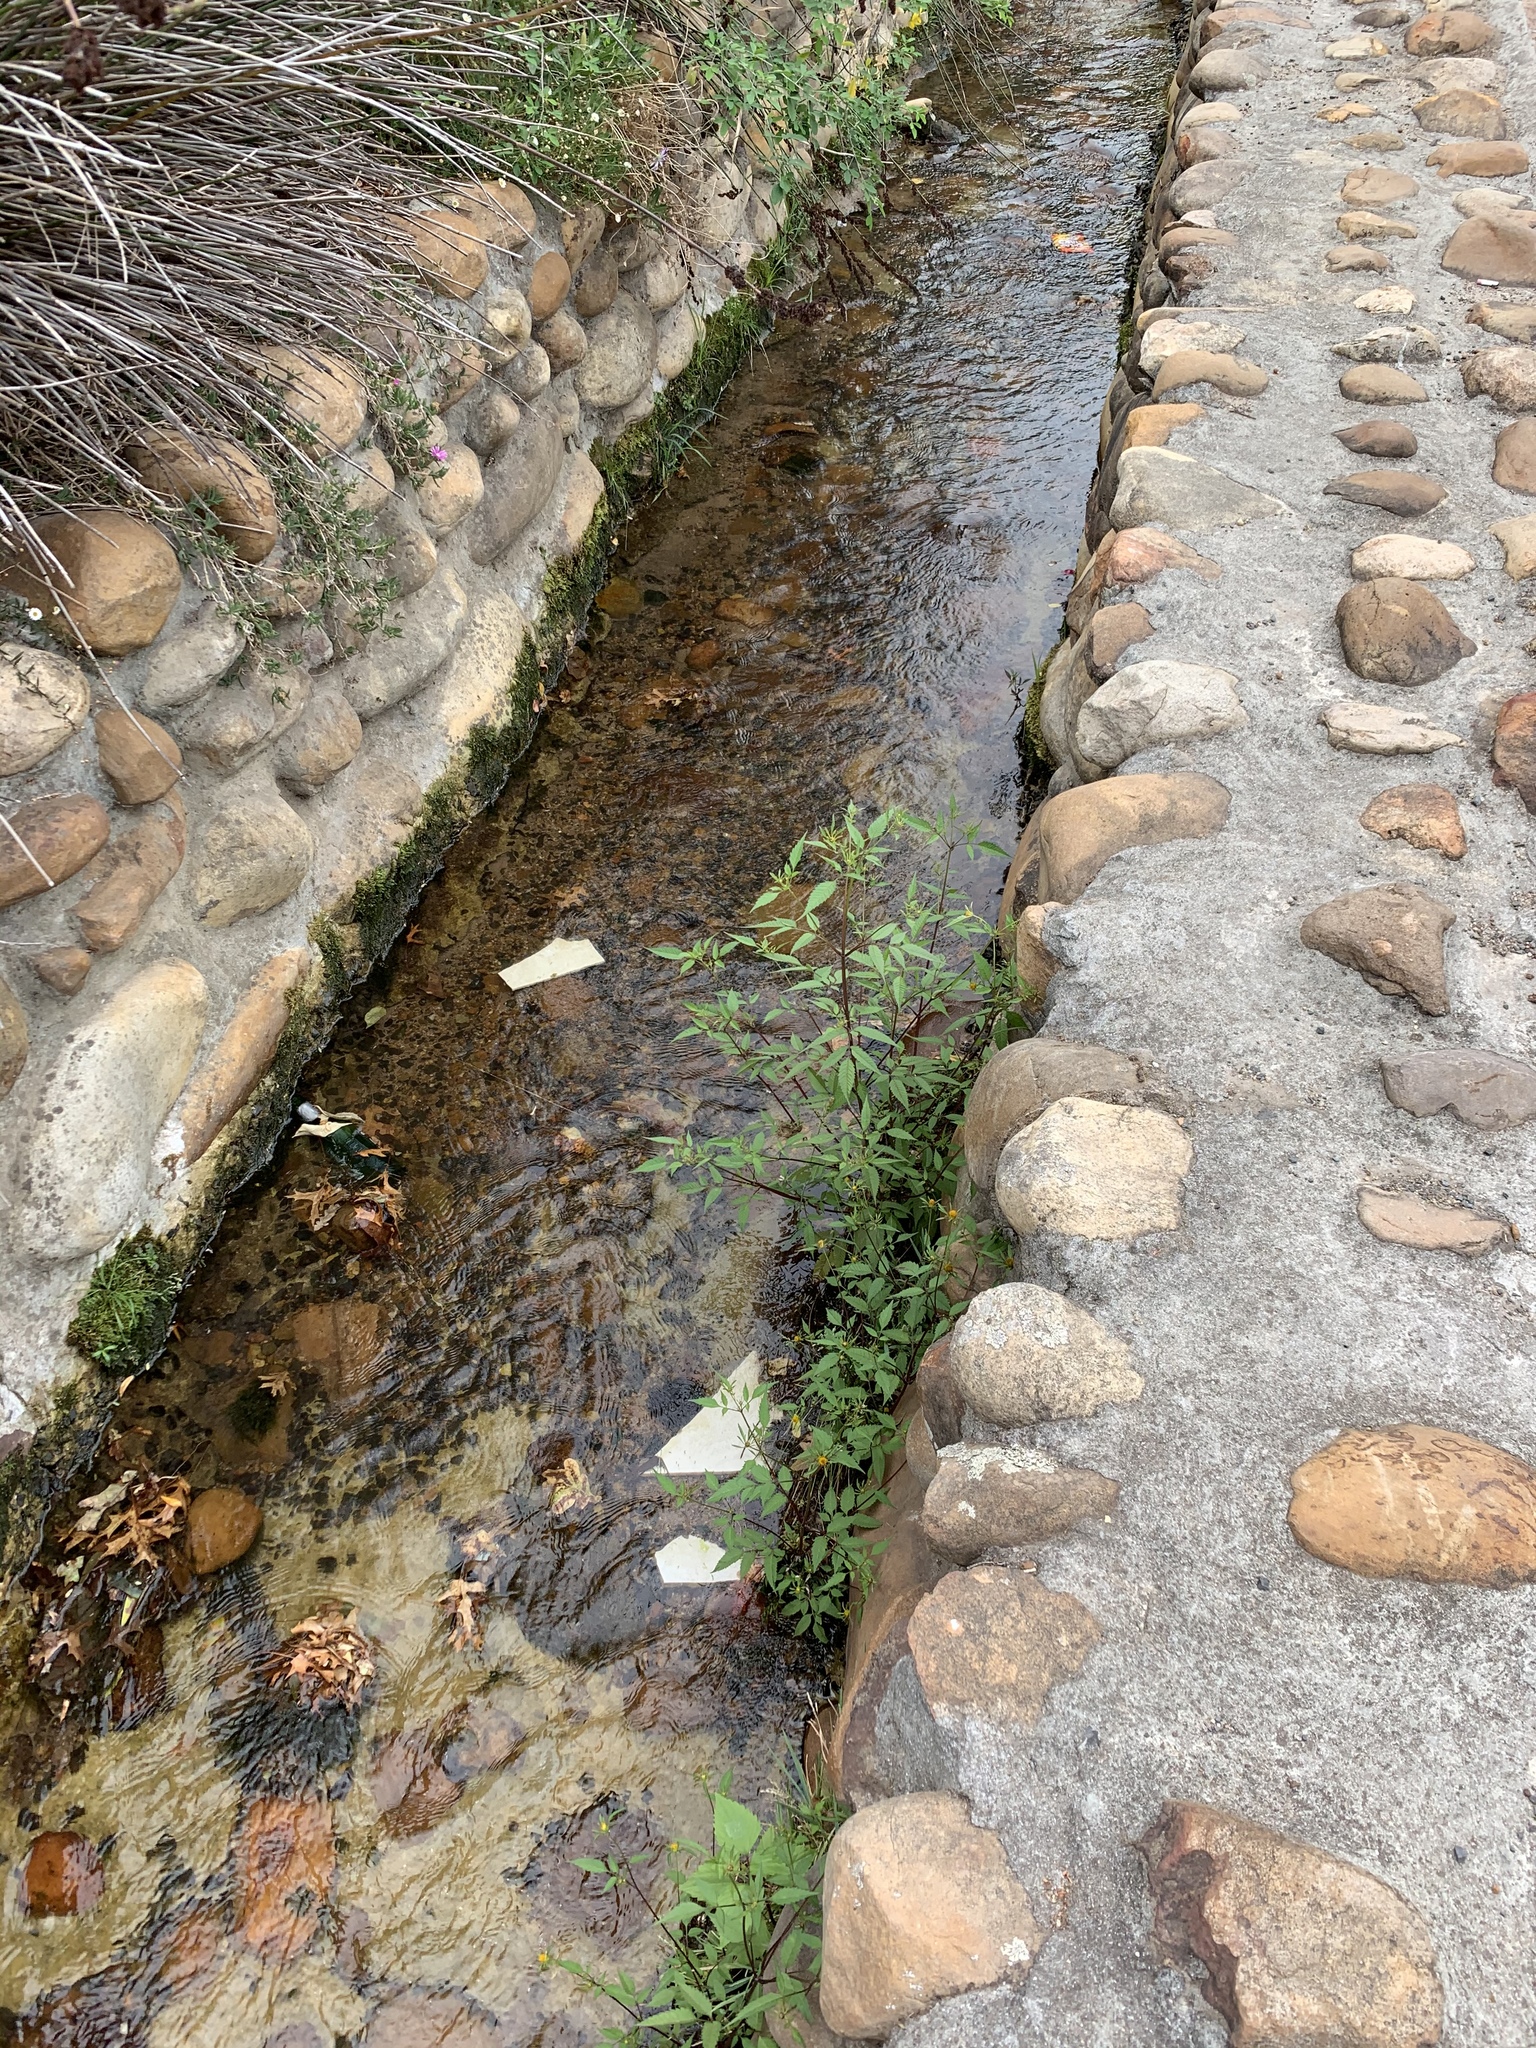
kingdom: Plantae
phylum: Tracheophyta
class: Magnoliopsida
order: Asterales
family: Asteraceae
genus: Bidens
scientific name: Bidens frondosa
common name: Beggarticks
